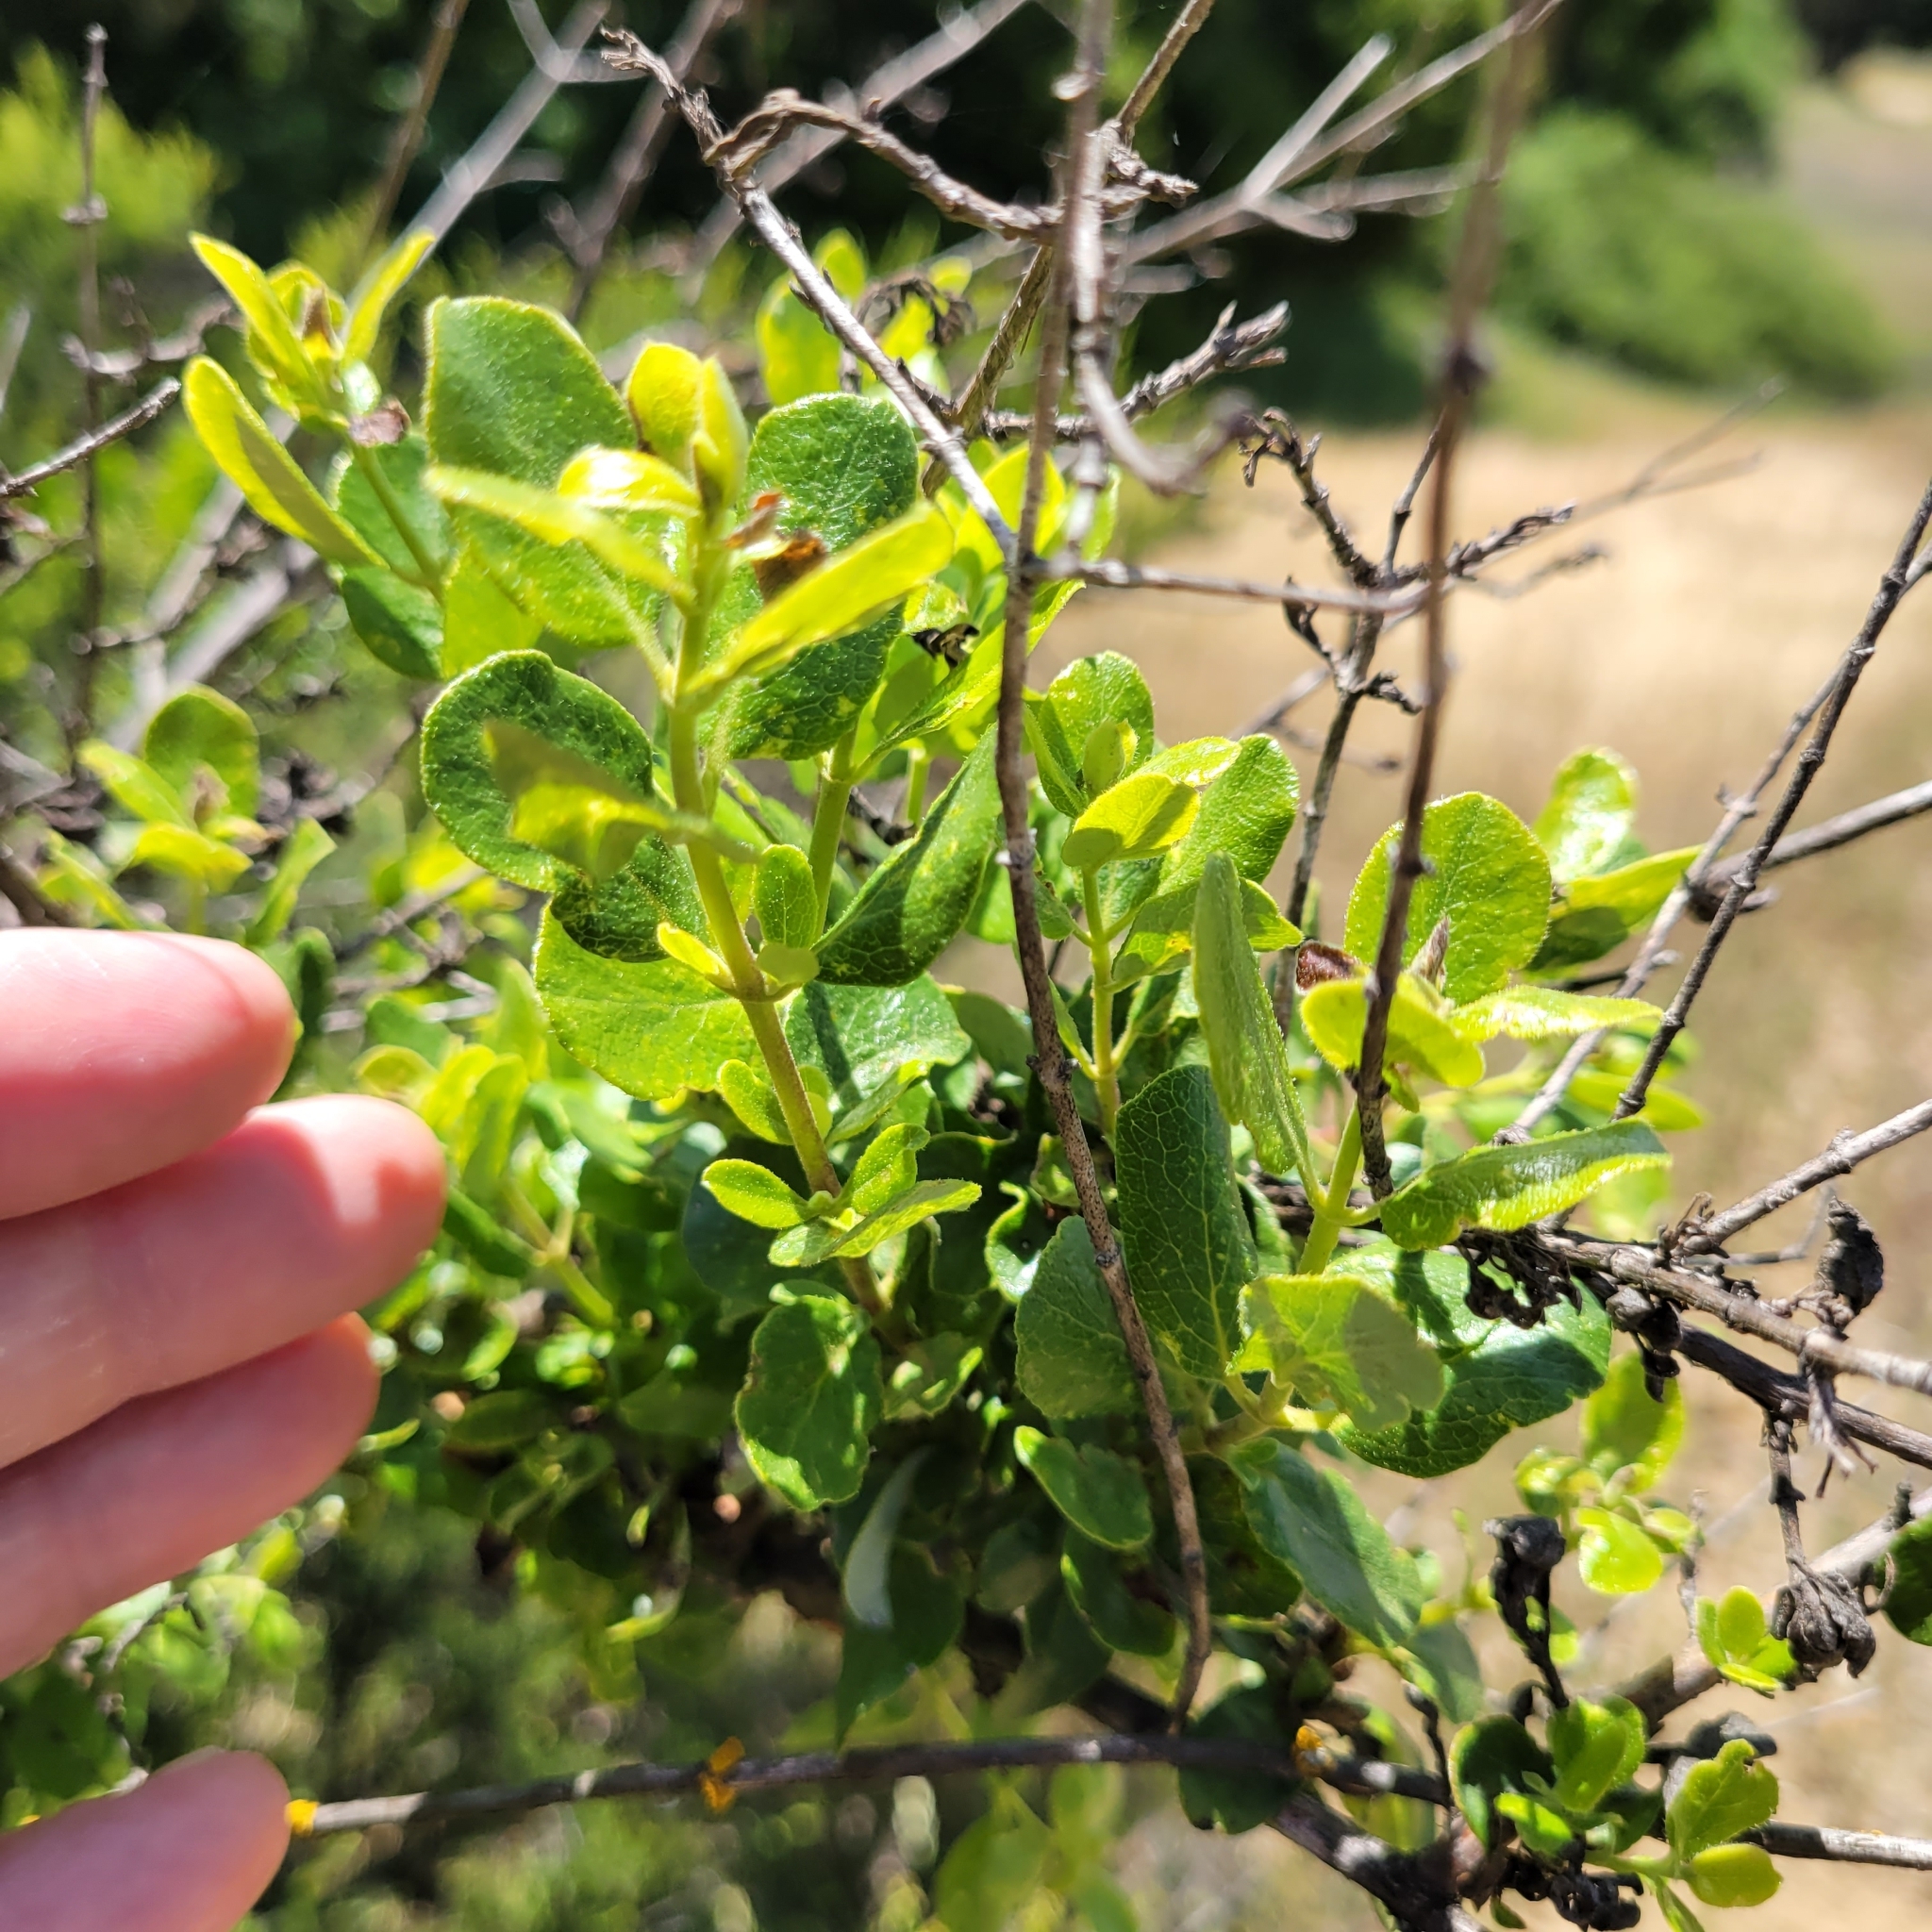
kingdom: Plantae
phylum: Tracheophyta
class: Magnoliopsida
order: Dipsacales
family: Caprifoliaceae
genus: Lonicera
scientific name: Lonicera subspicata
